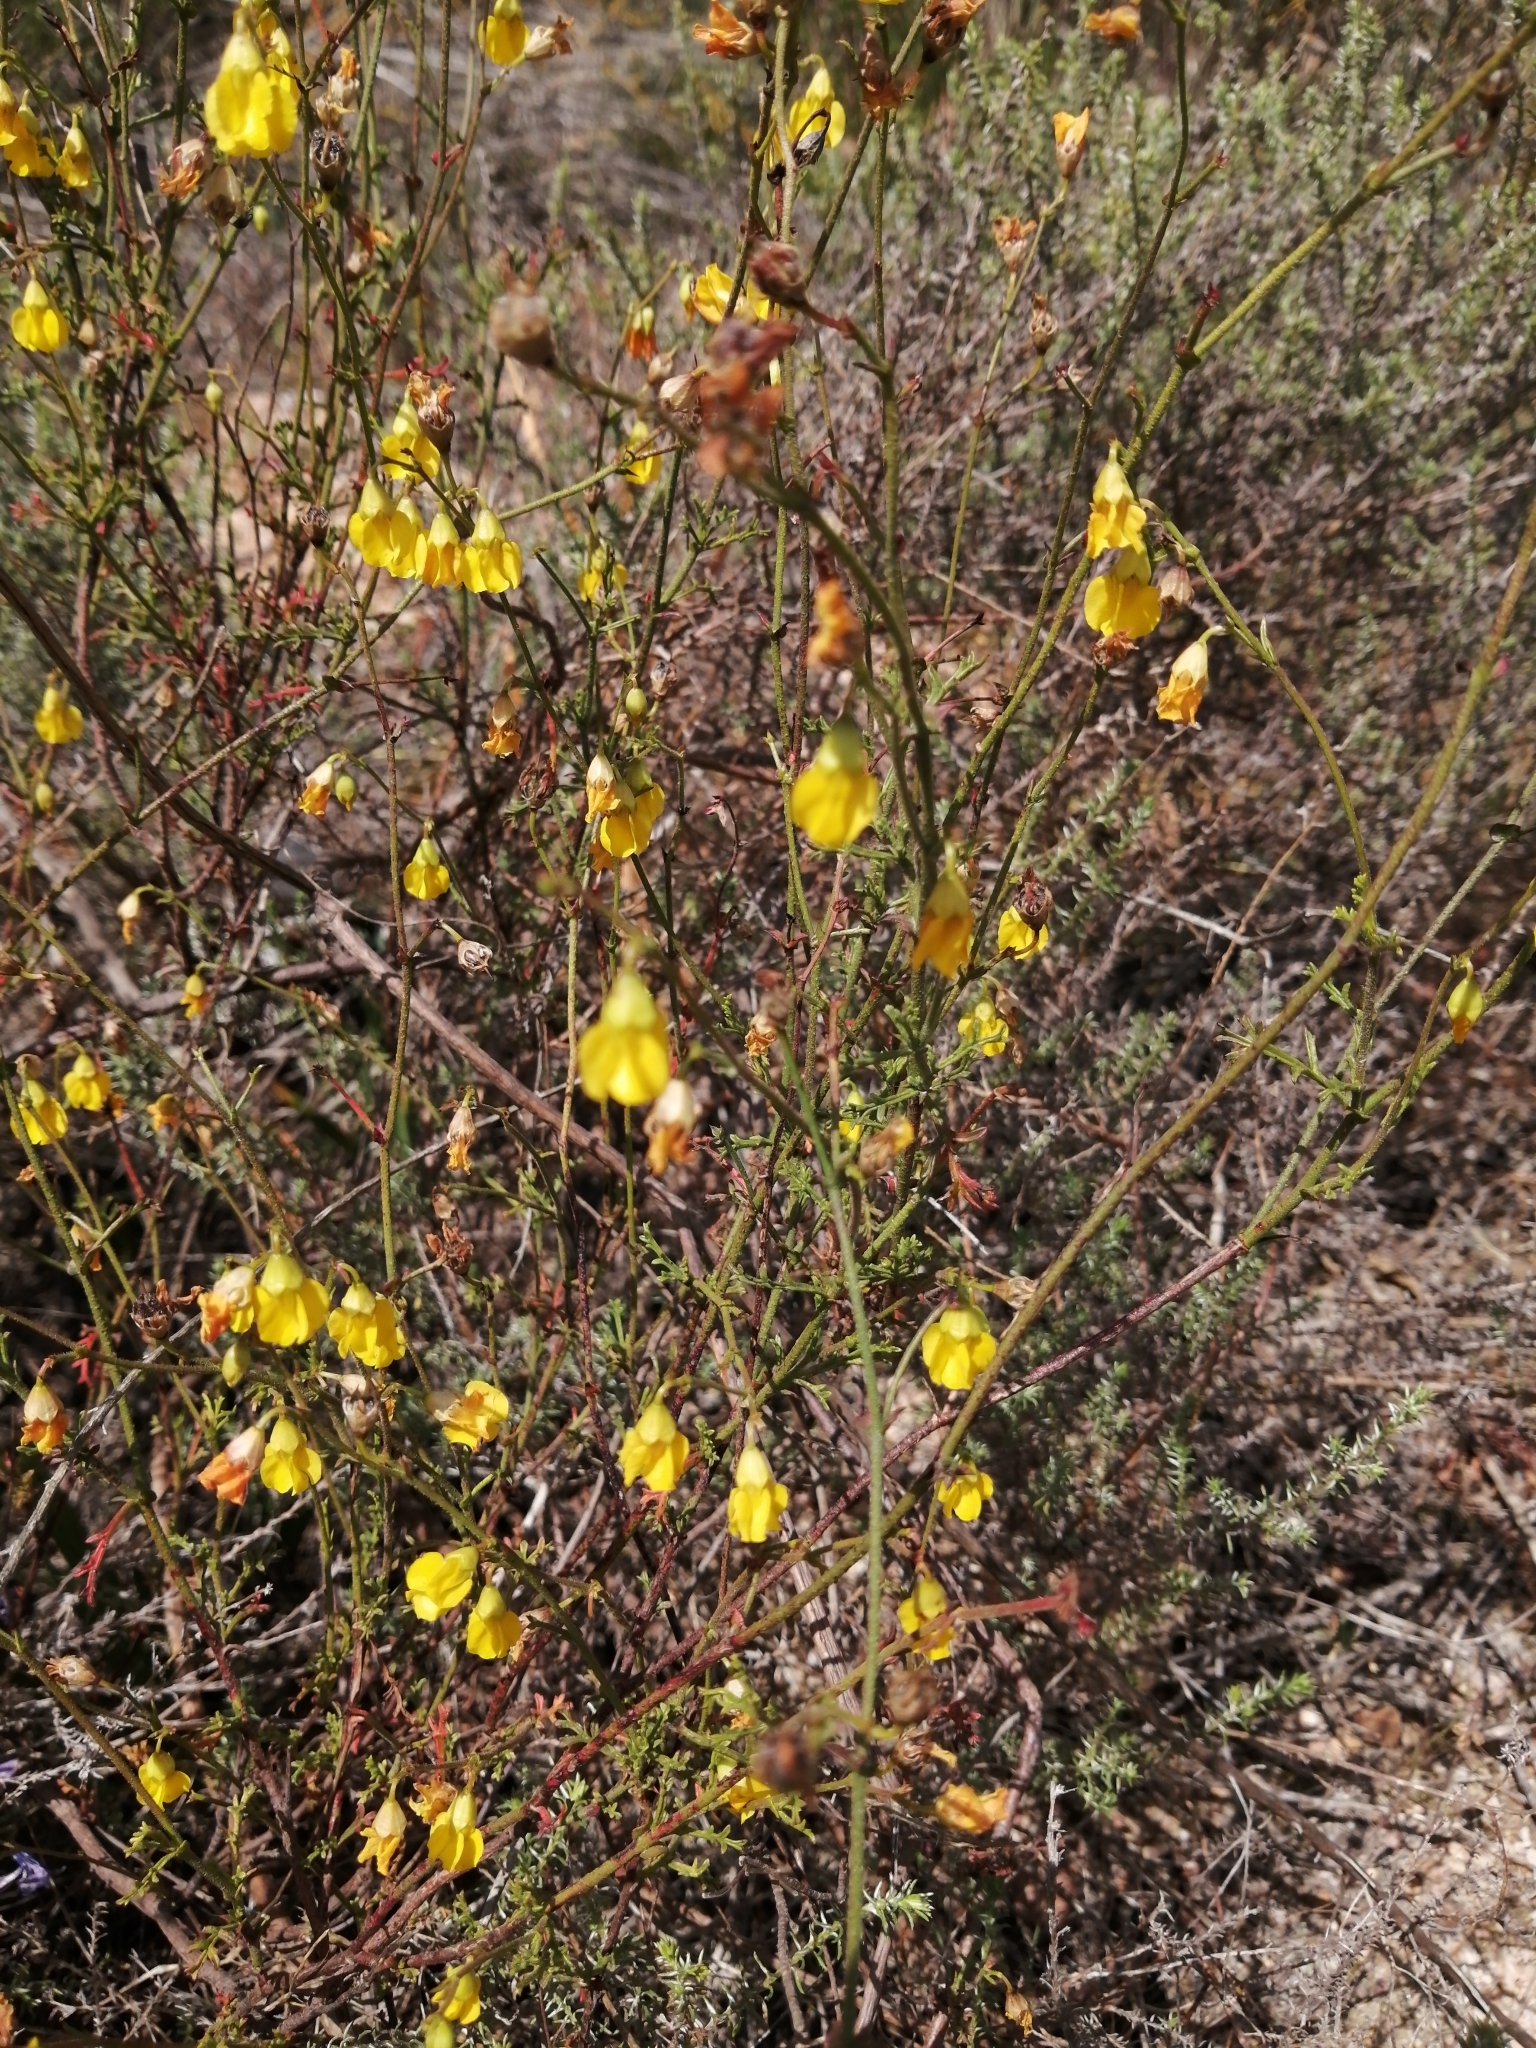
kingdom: Plantae
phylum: Tracheophyta
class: Magnoliopsida
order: Malvales
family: Malvaceae
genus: Hermannia
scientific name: Hermannia confusa
